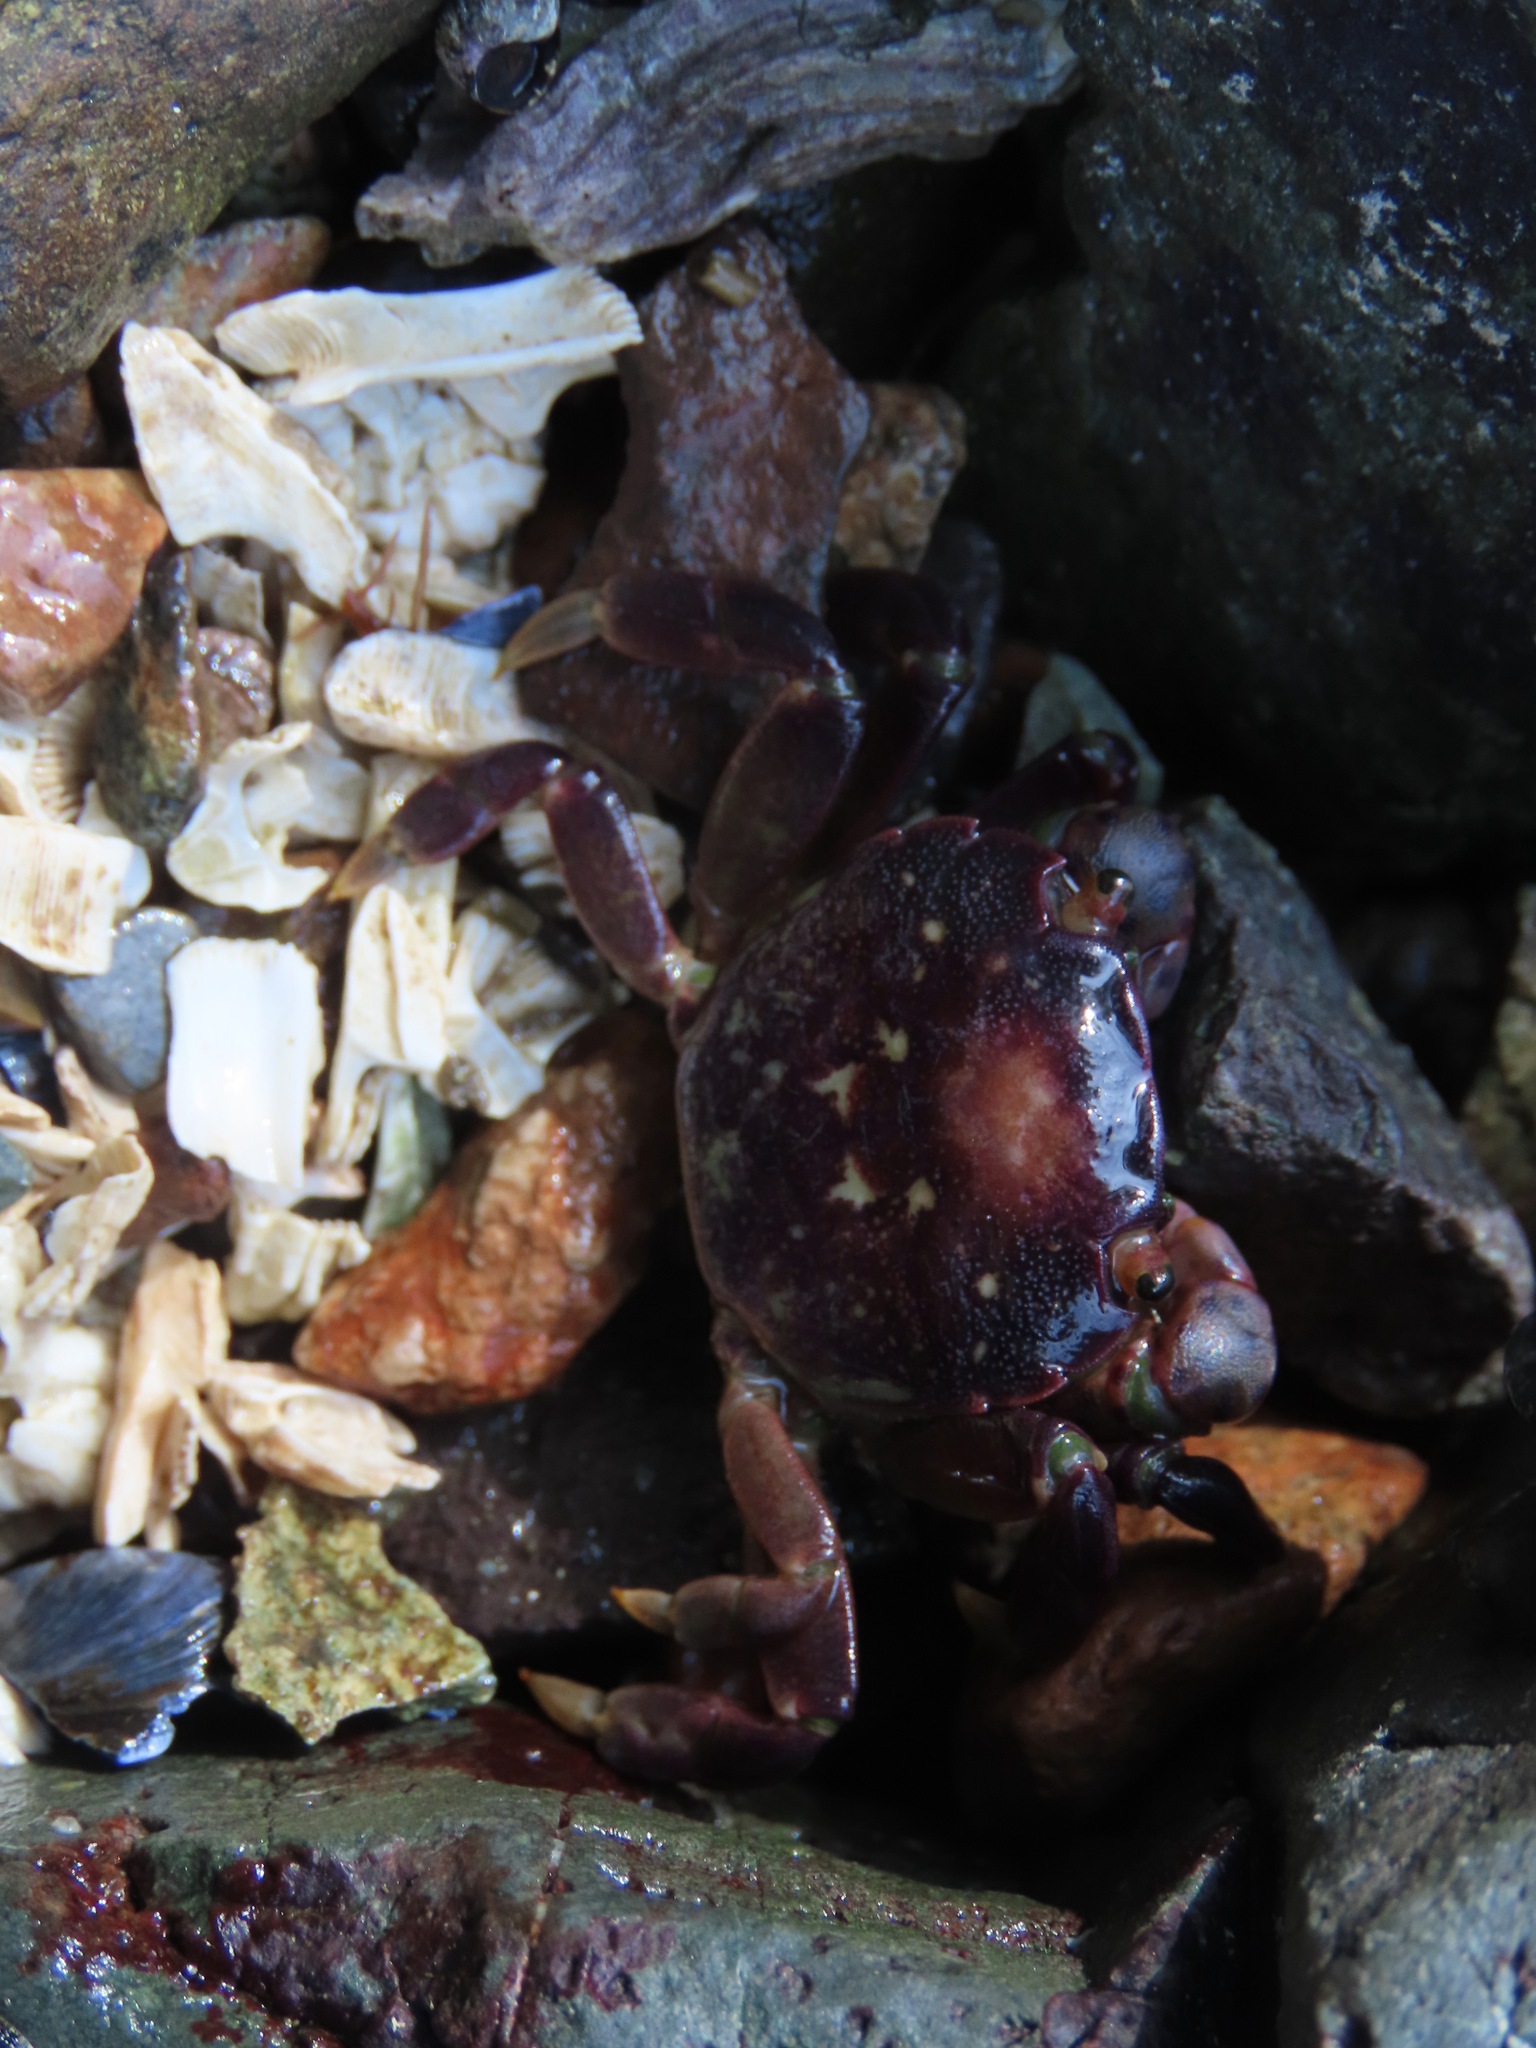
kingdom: Animalia
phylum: Arthropoda
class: Malacostraca
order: Decapoda
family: Varunidae
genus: Hemigrapsus
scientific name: Hemigrapsus nudus
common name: Purple shore crab
